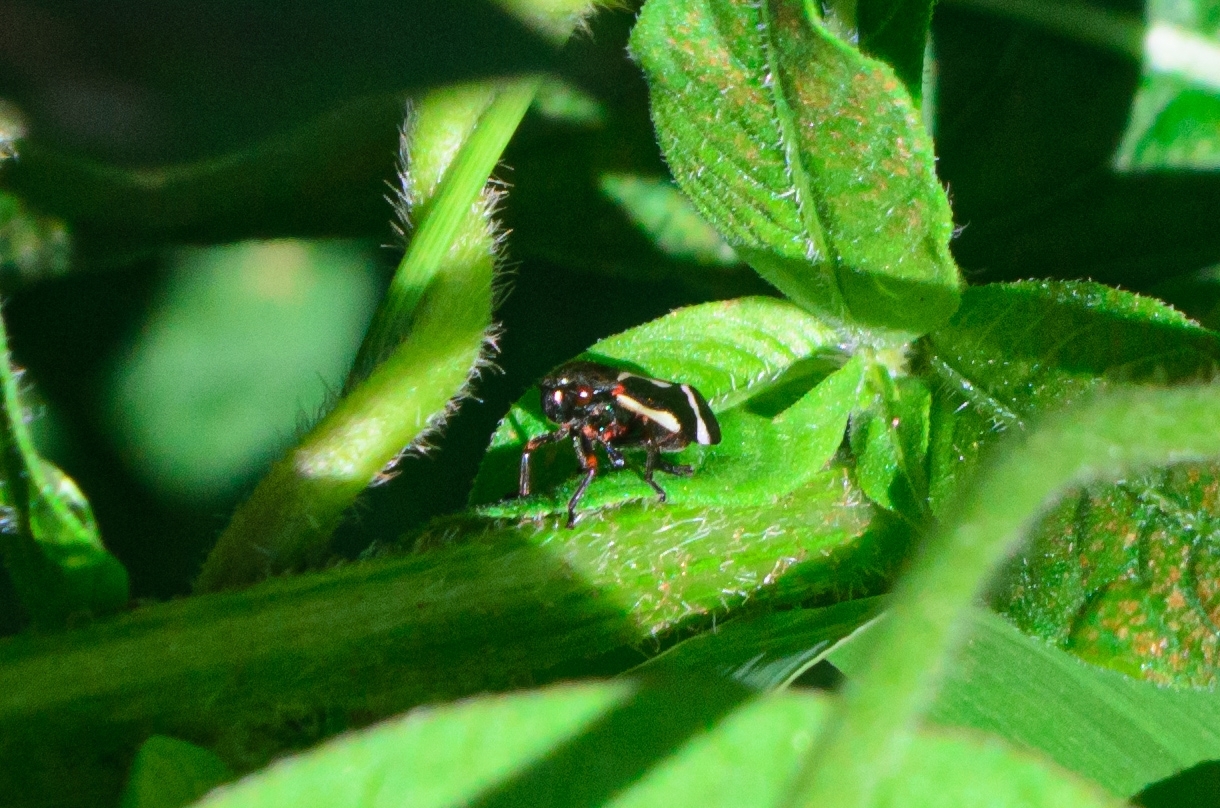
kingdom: Animalia
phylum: Arthropoda
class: Insecta
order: Hemiptera
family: Cercopidae
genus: Notozulia
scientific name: Notozulia entreriana
